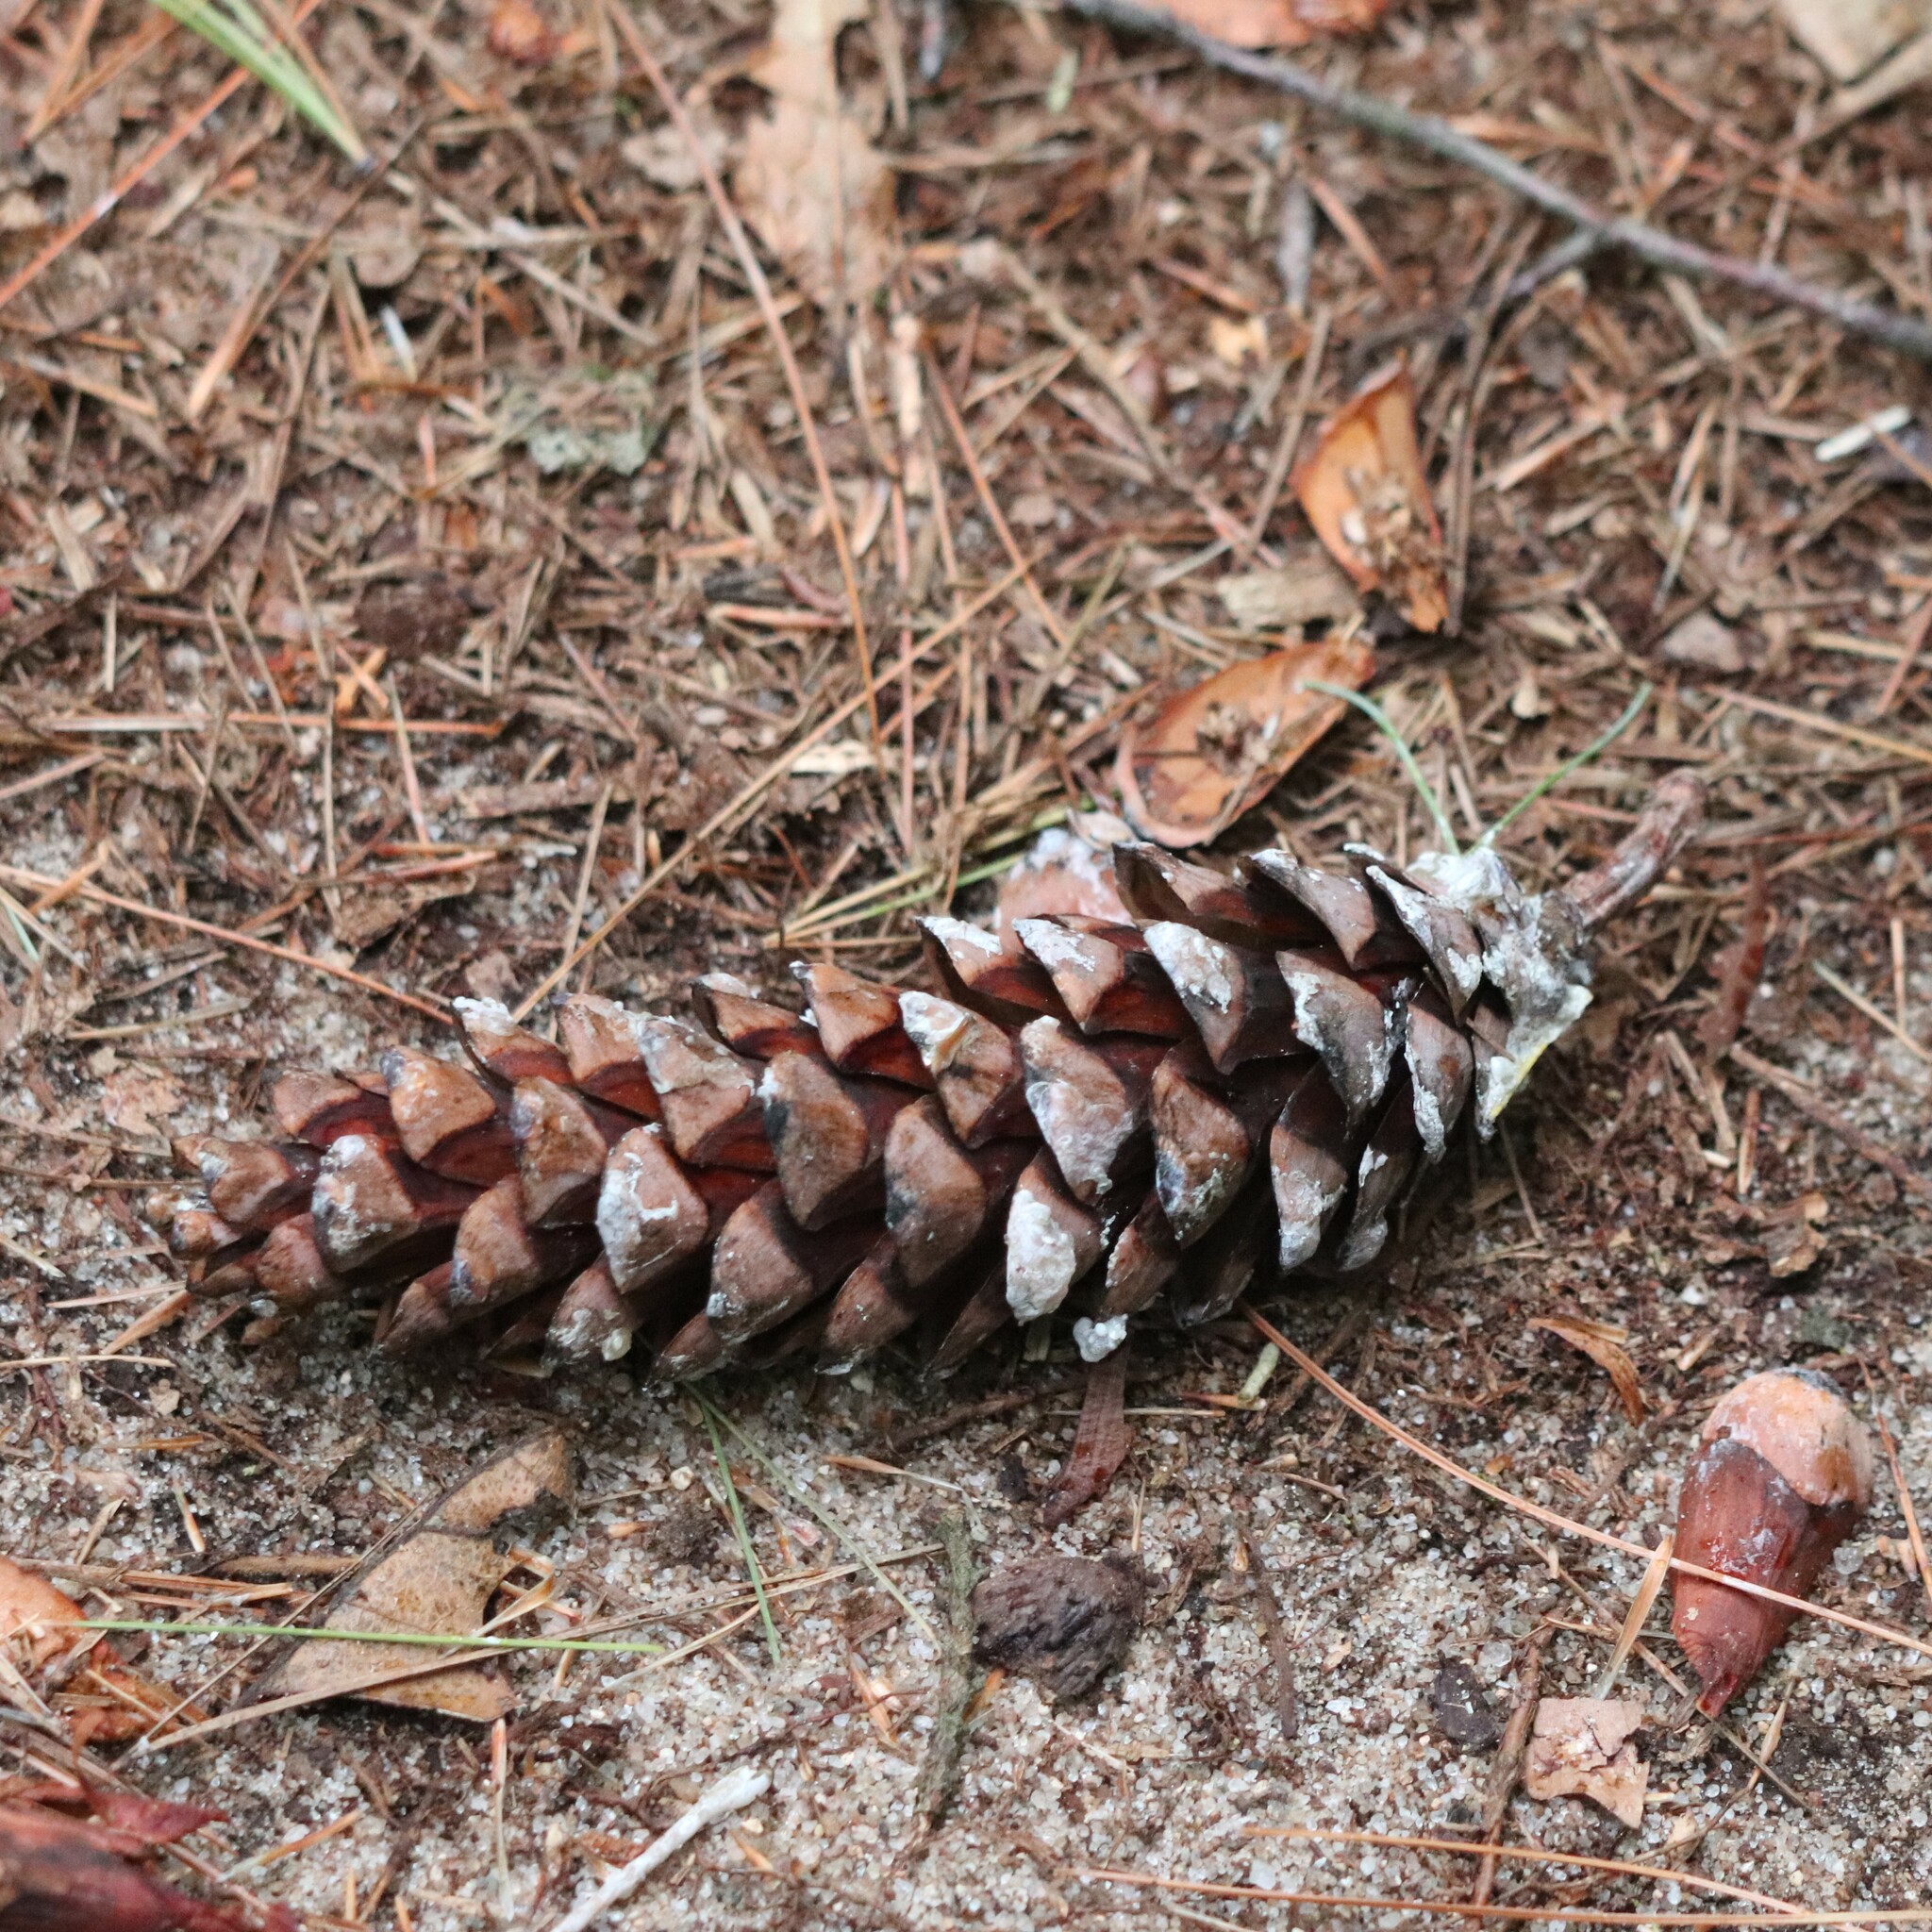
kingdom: Plantae
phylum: Tracheophyta
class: Pinopsida
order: Pinales
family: Pinaceae
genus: Pinus
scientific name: Pinus strobus
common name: Weymouth pine
